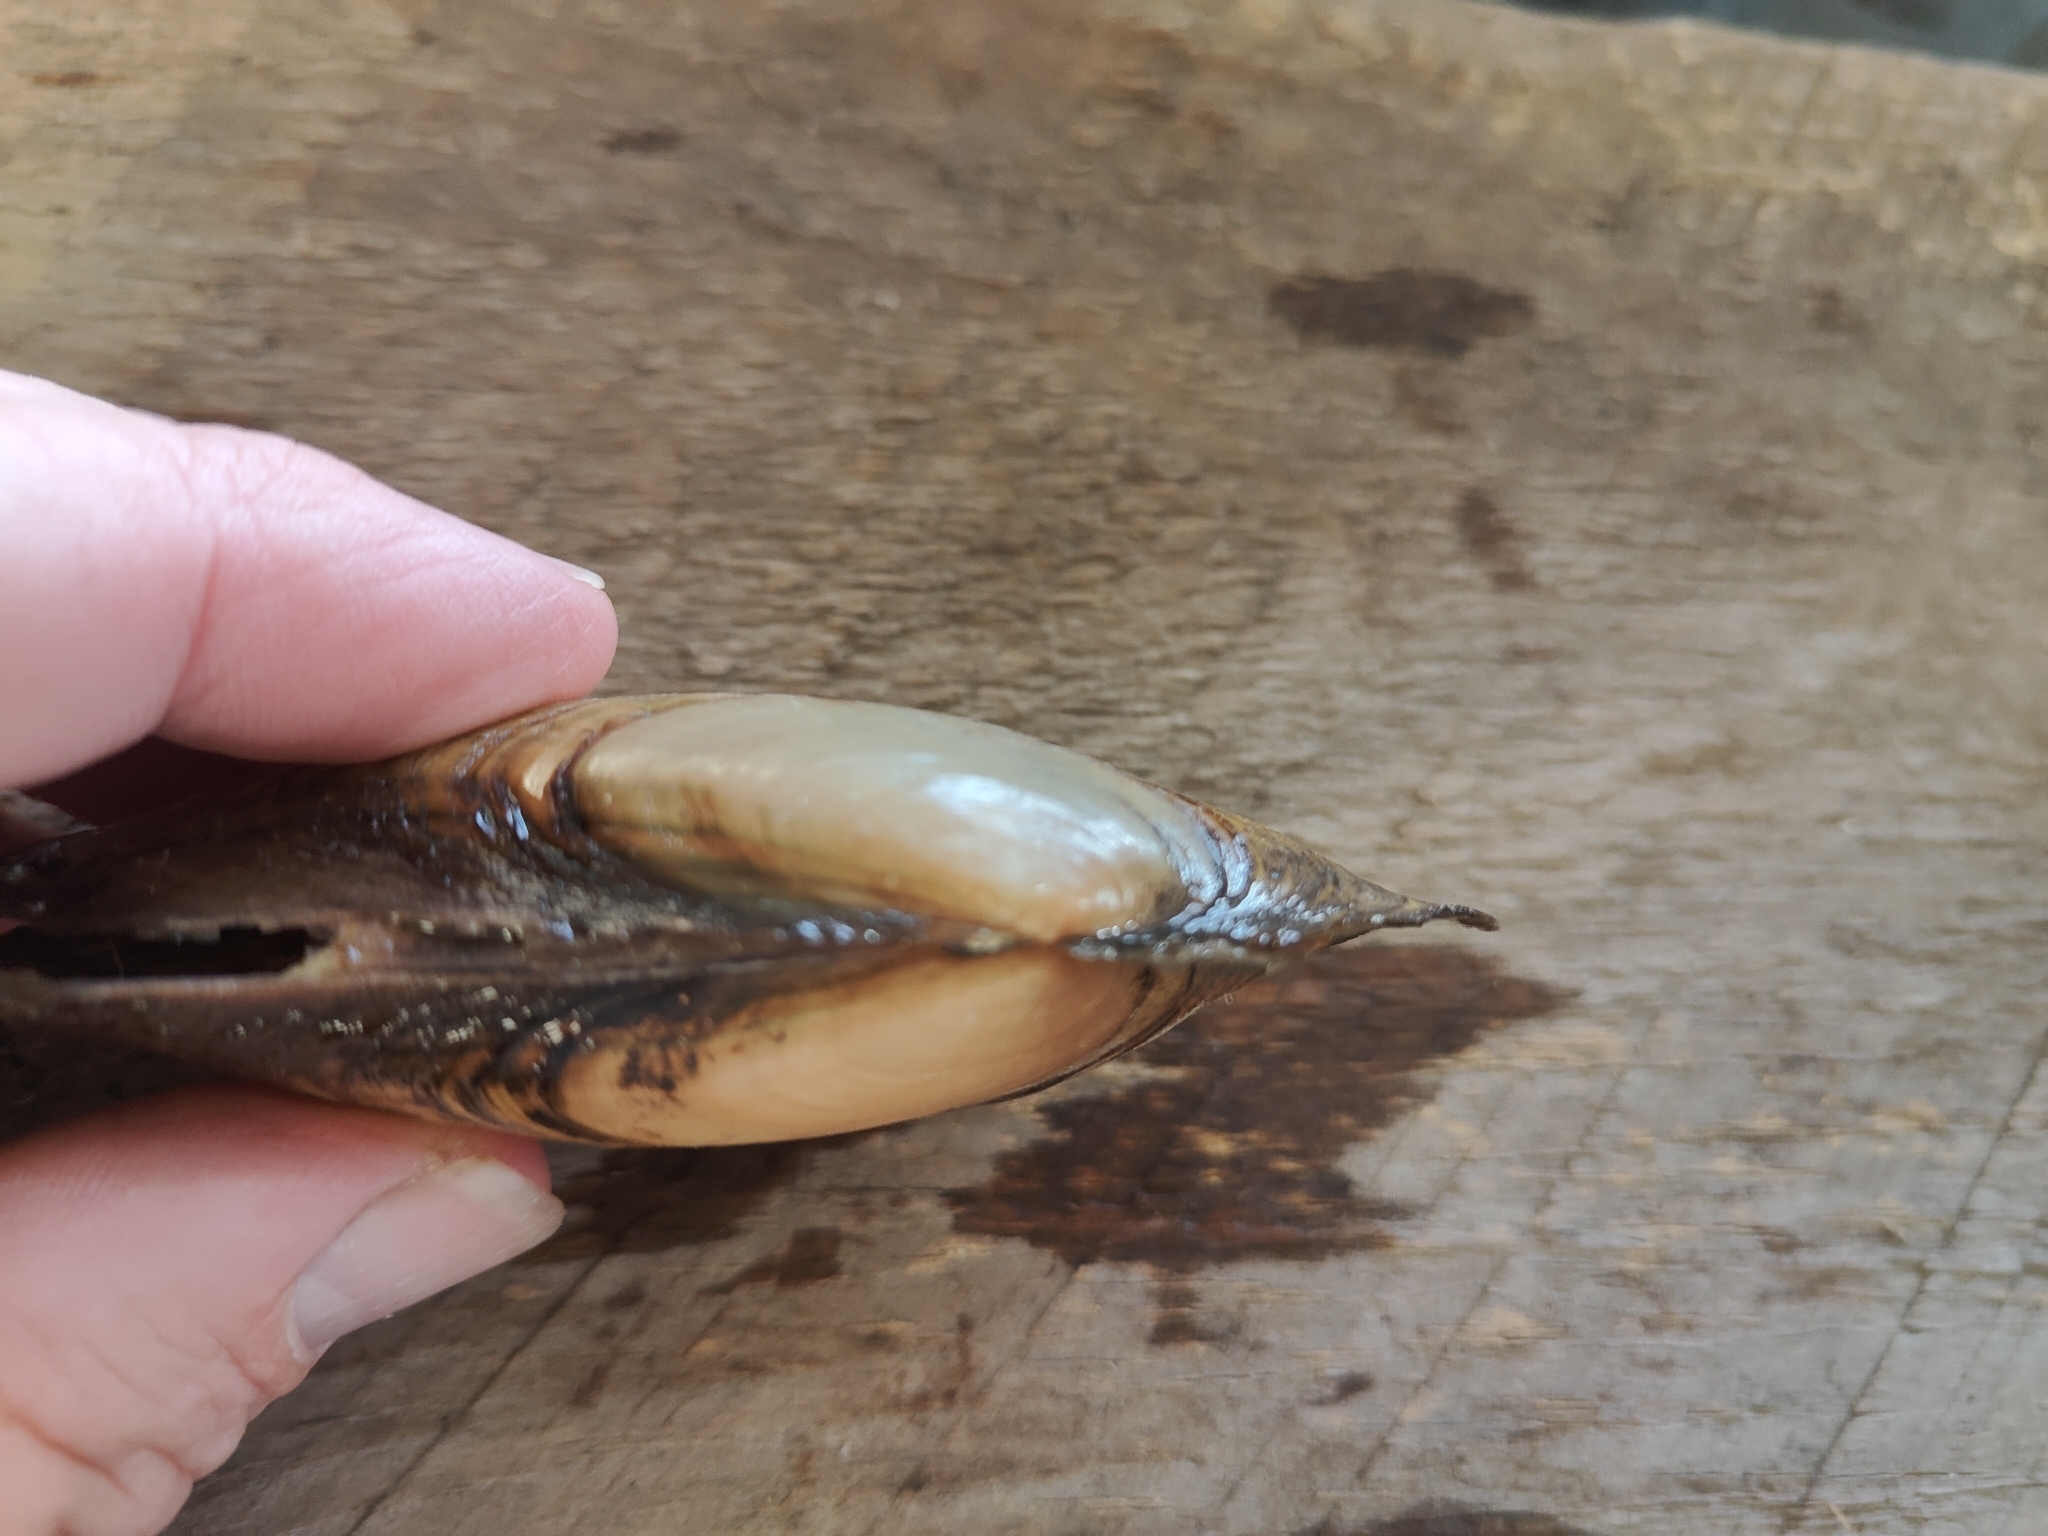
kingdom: Animalia
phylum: Mollusca
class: Bivalvia
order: Unionida
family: Unionidae
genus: Potamilus
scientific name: Potamilus fragilis
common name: Fragile papershell
